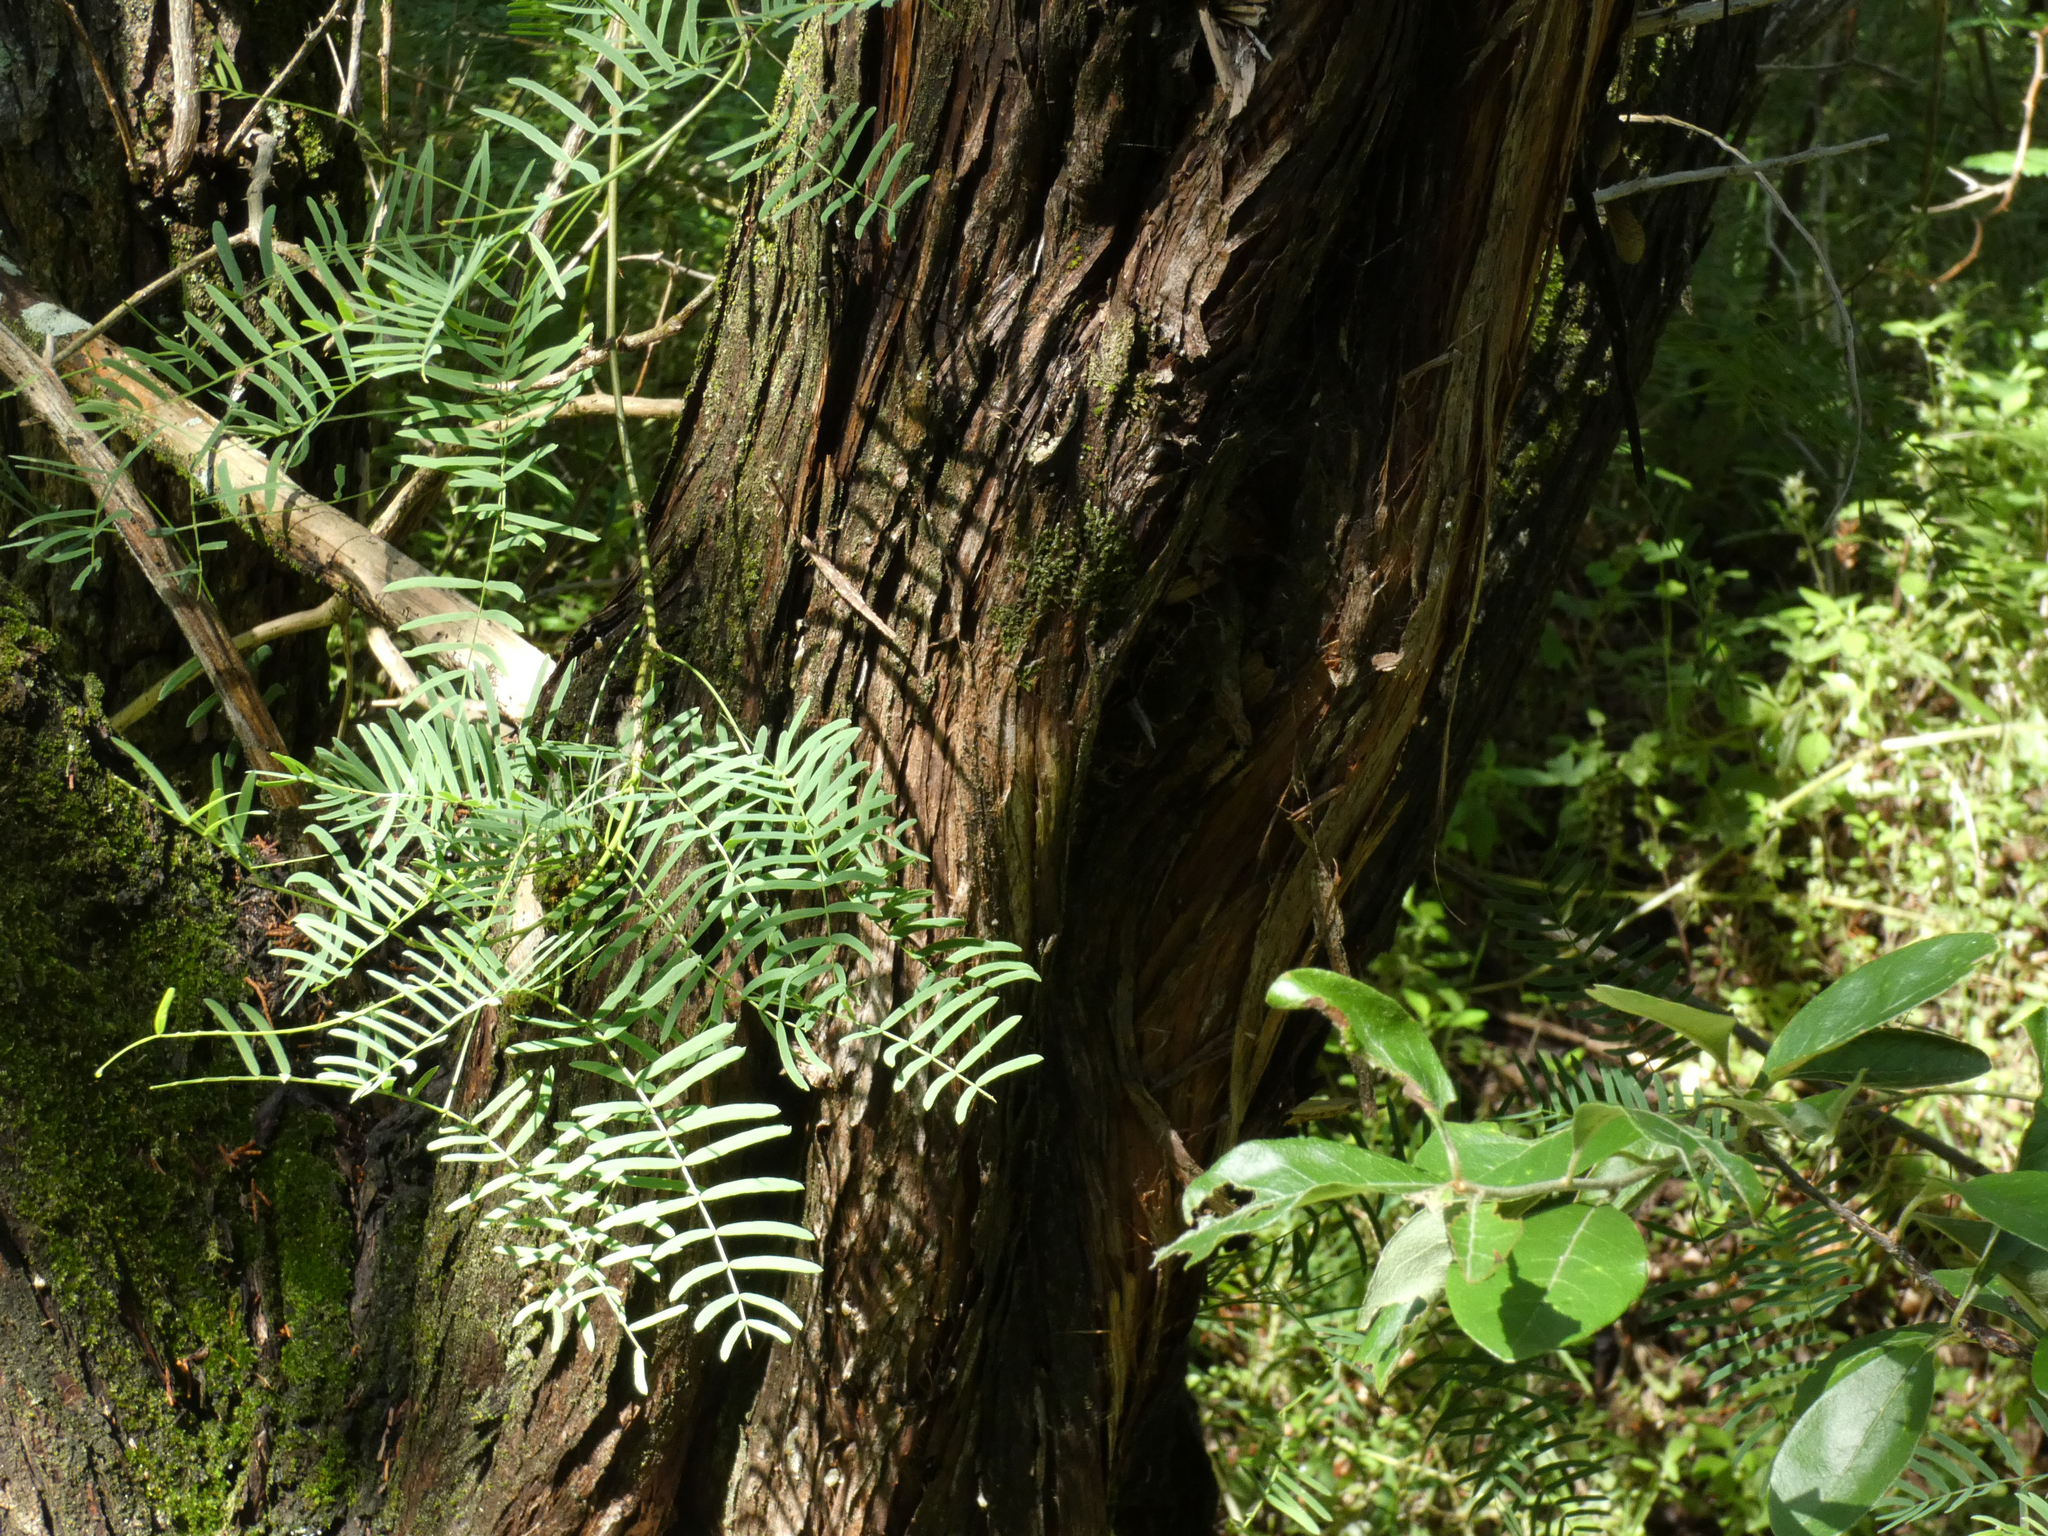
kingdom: Plantae
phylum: Tracheophyta
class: Pinopsida
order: Pinales
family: Cupressaceae
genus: Juniperus
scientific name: Juniperus ashei
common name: Mexican juniper
